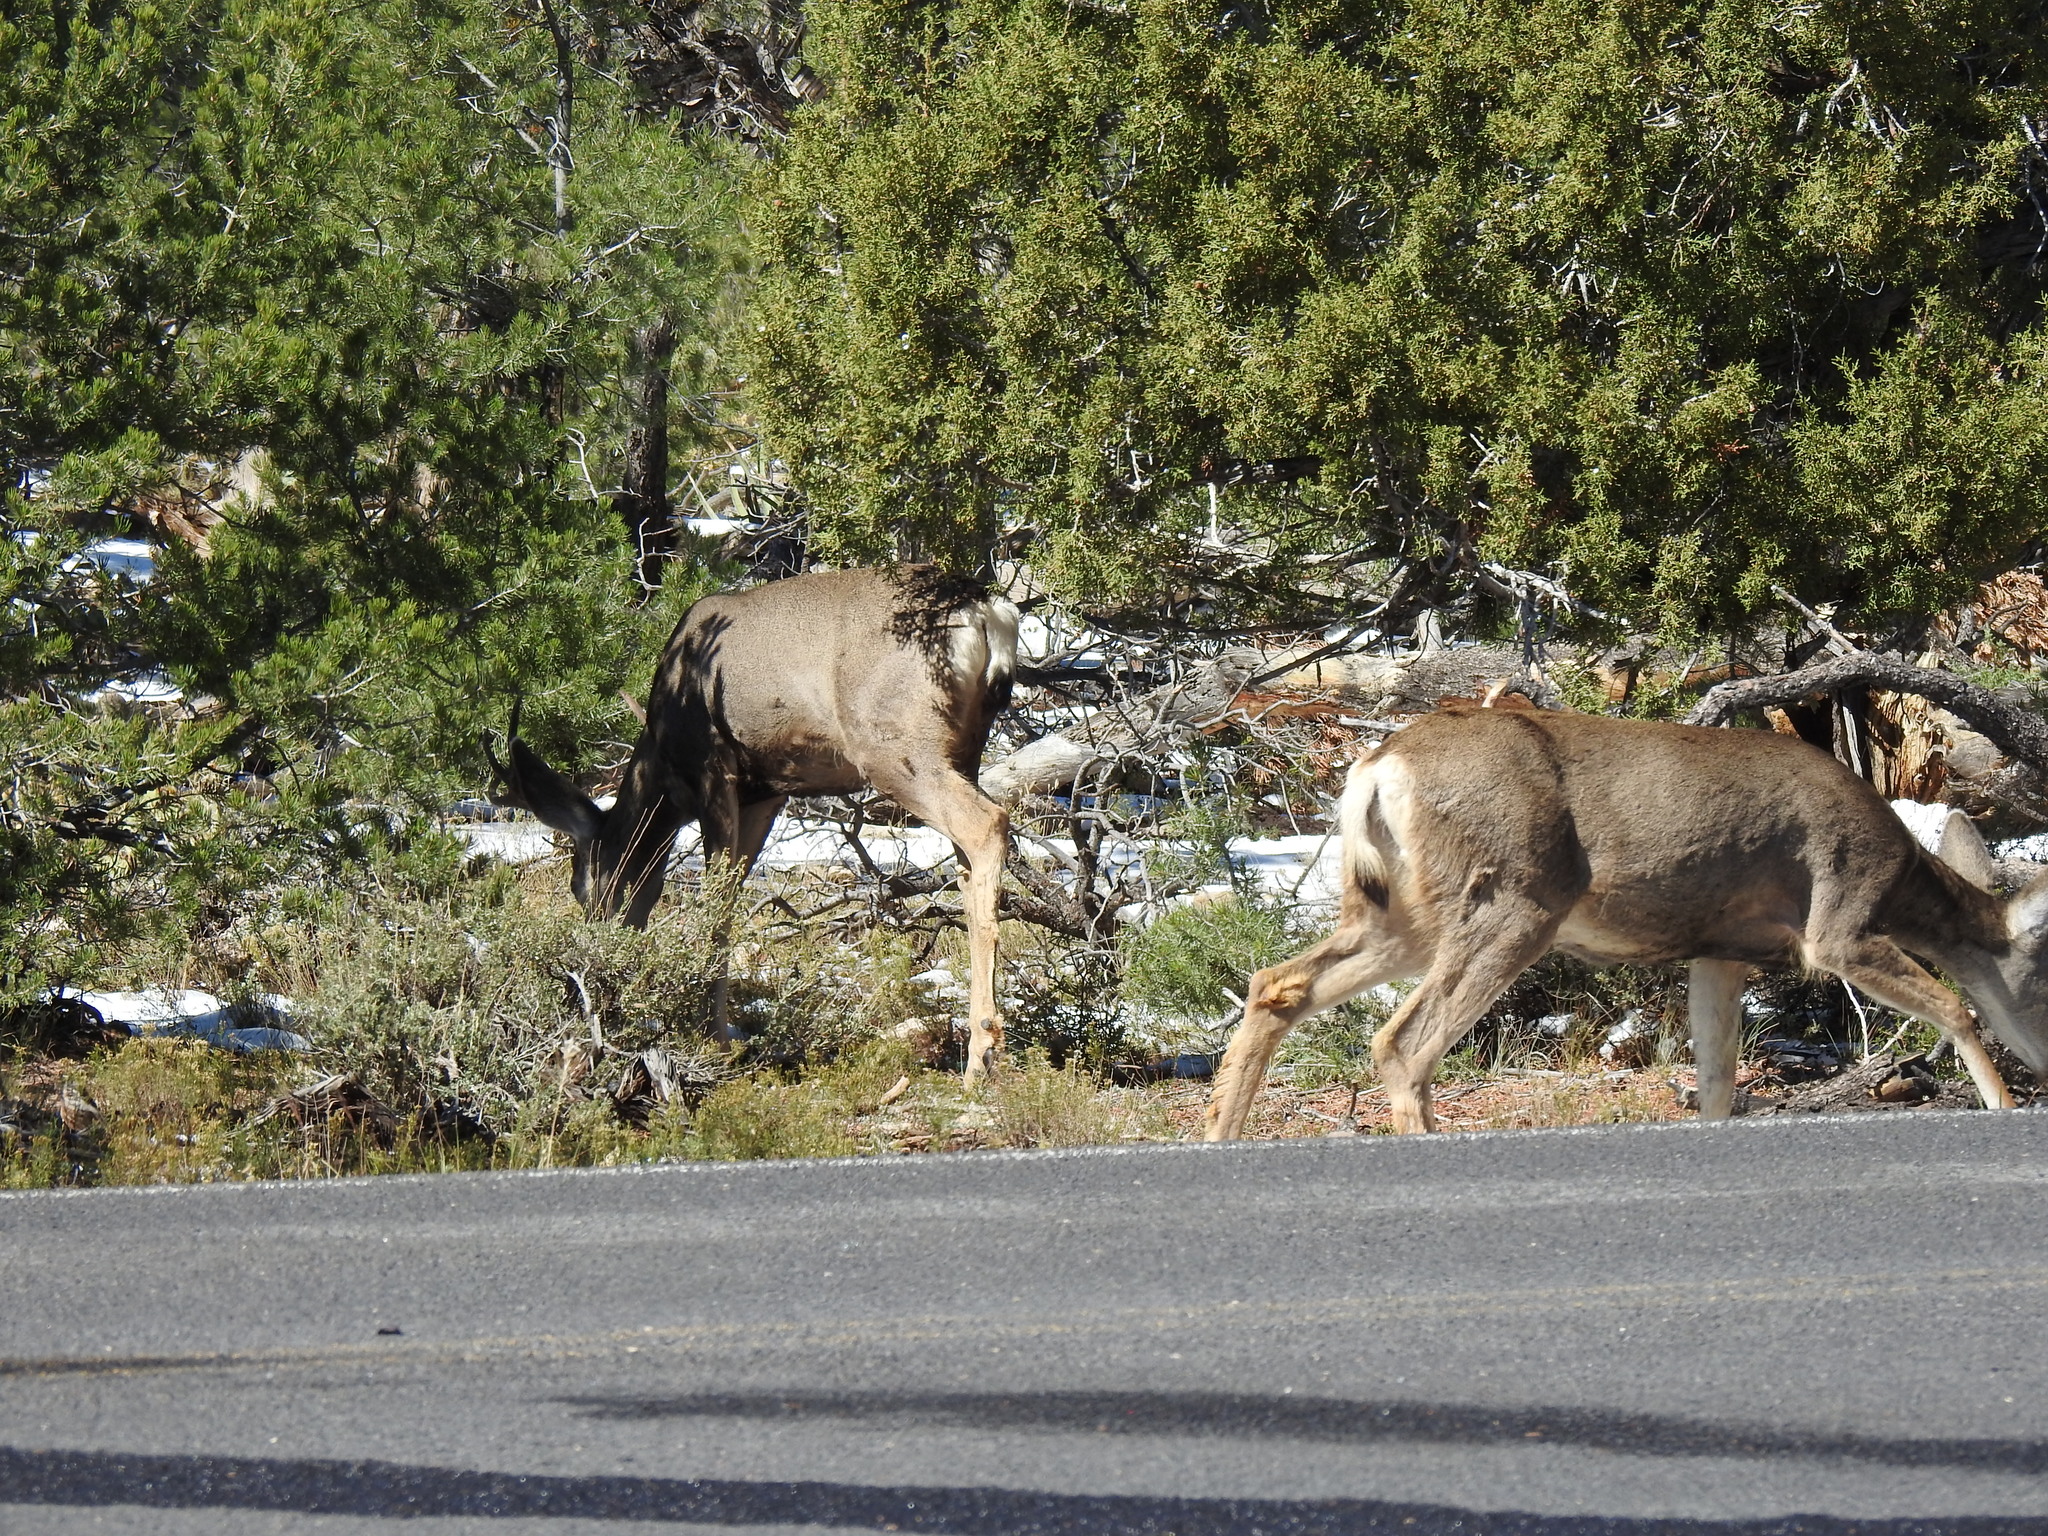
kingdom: Animalia
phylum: Chordata
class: Mammalia
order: Artiodactyla
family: Cervidae
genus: Odocoileus
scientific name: Odocoileus hemionus
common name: Mule deer
